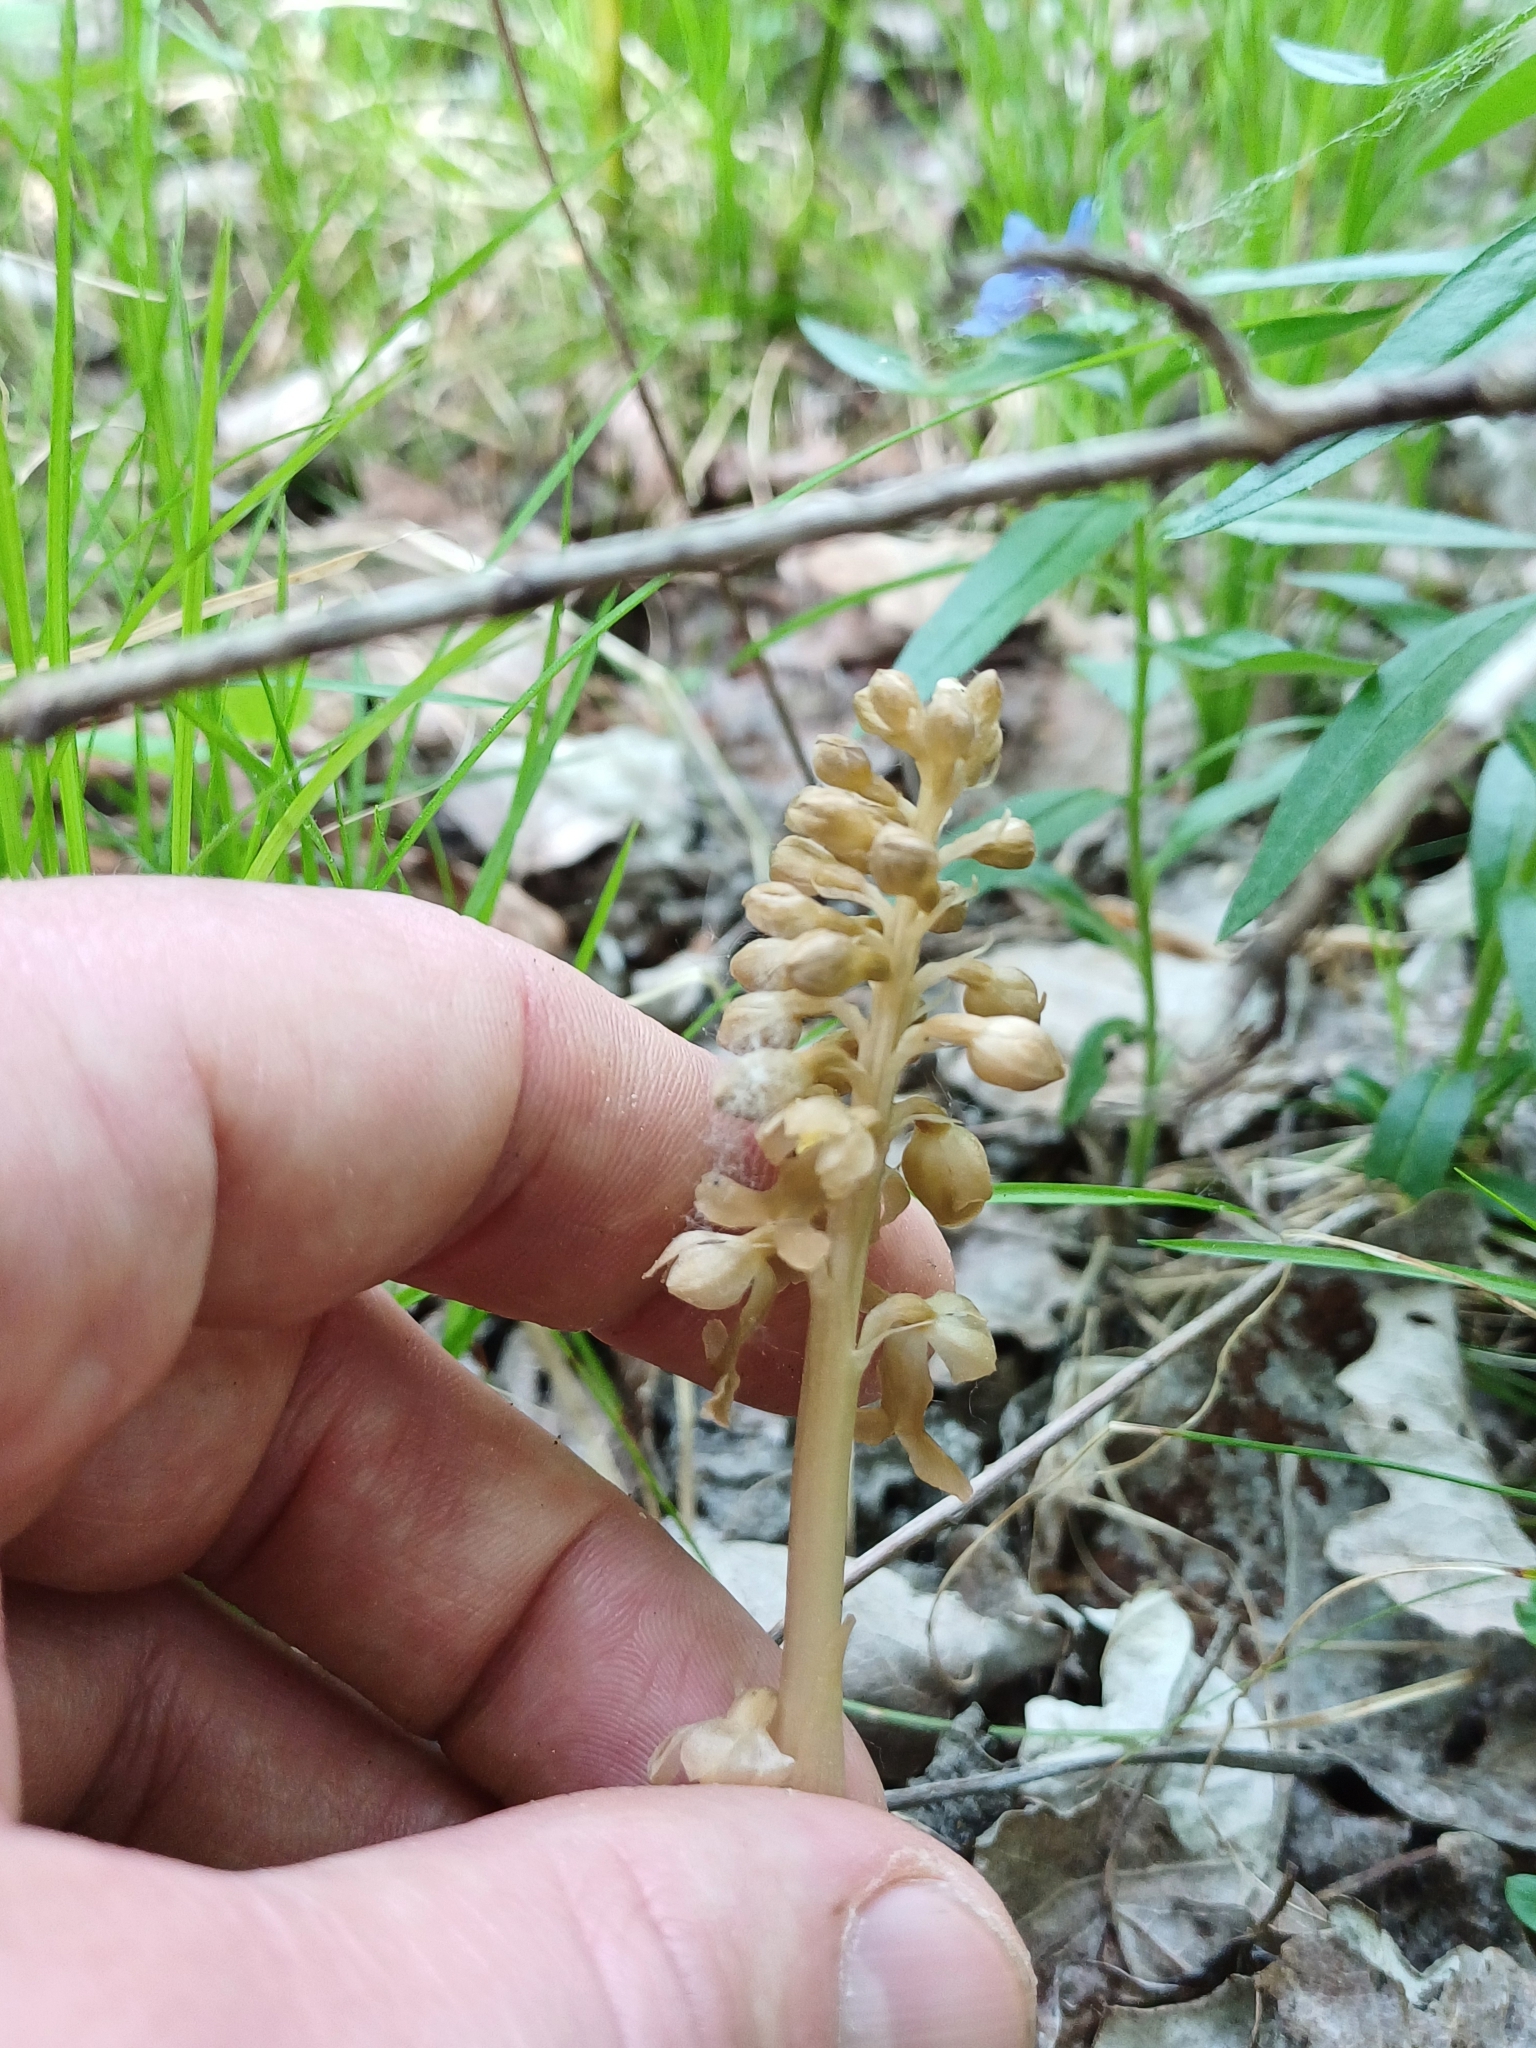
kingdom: Plantae
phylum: Tracheophyta
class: Liliopsida
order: Asparagales
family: Orchidaceae
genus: Neottia
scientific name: Neottia nidus-avis
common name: Bird's-nest orchid
